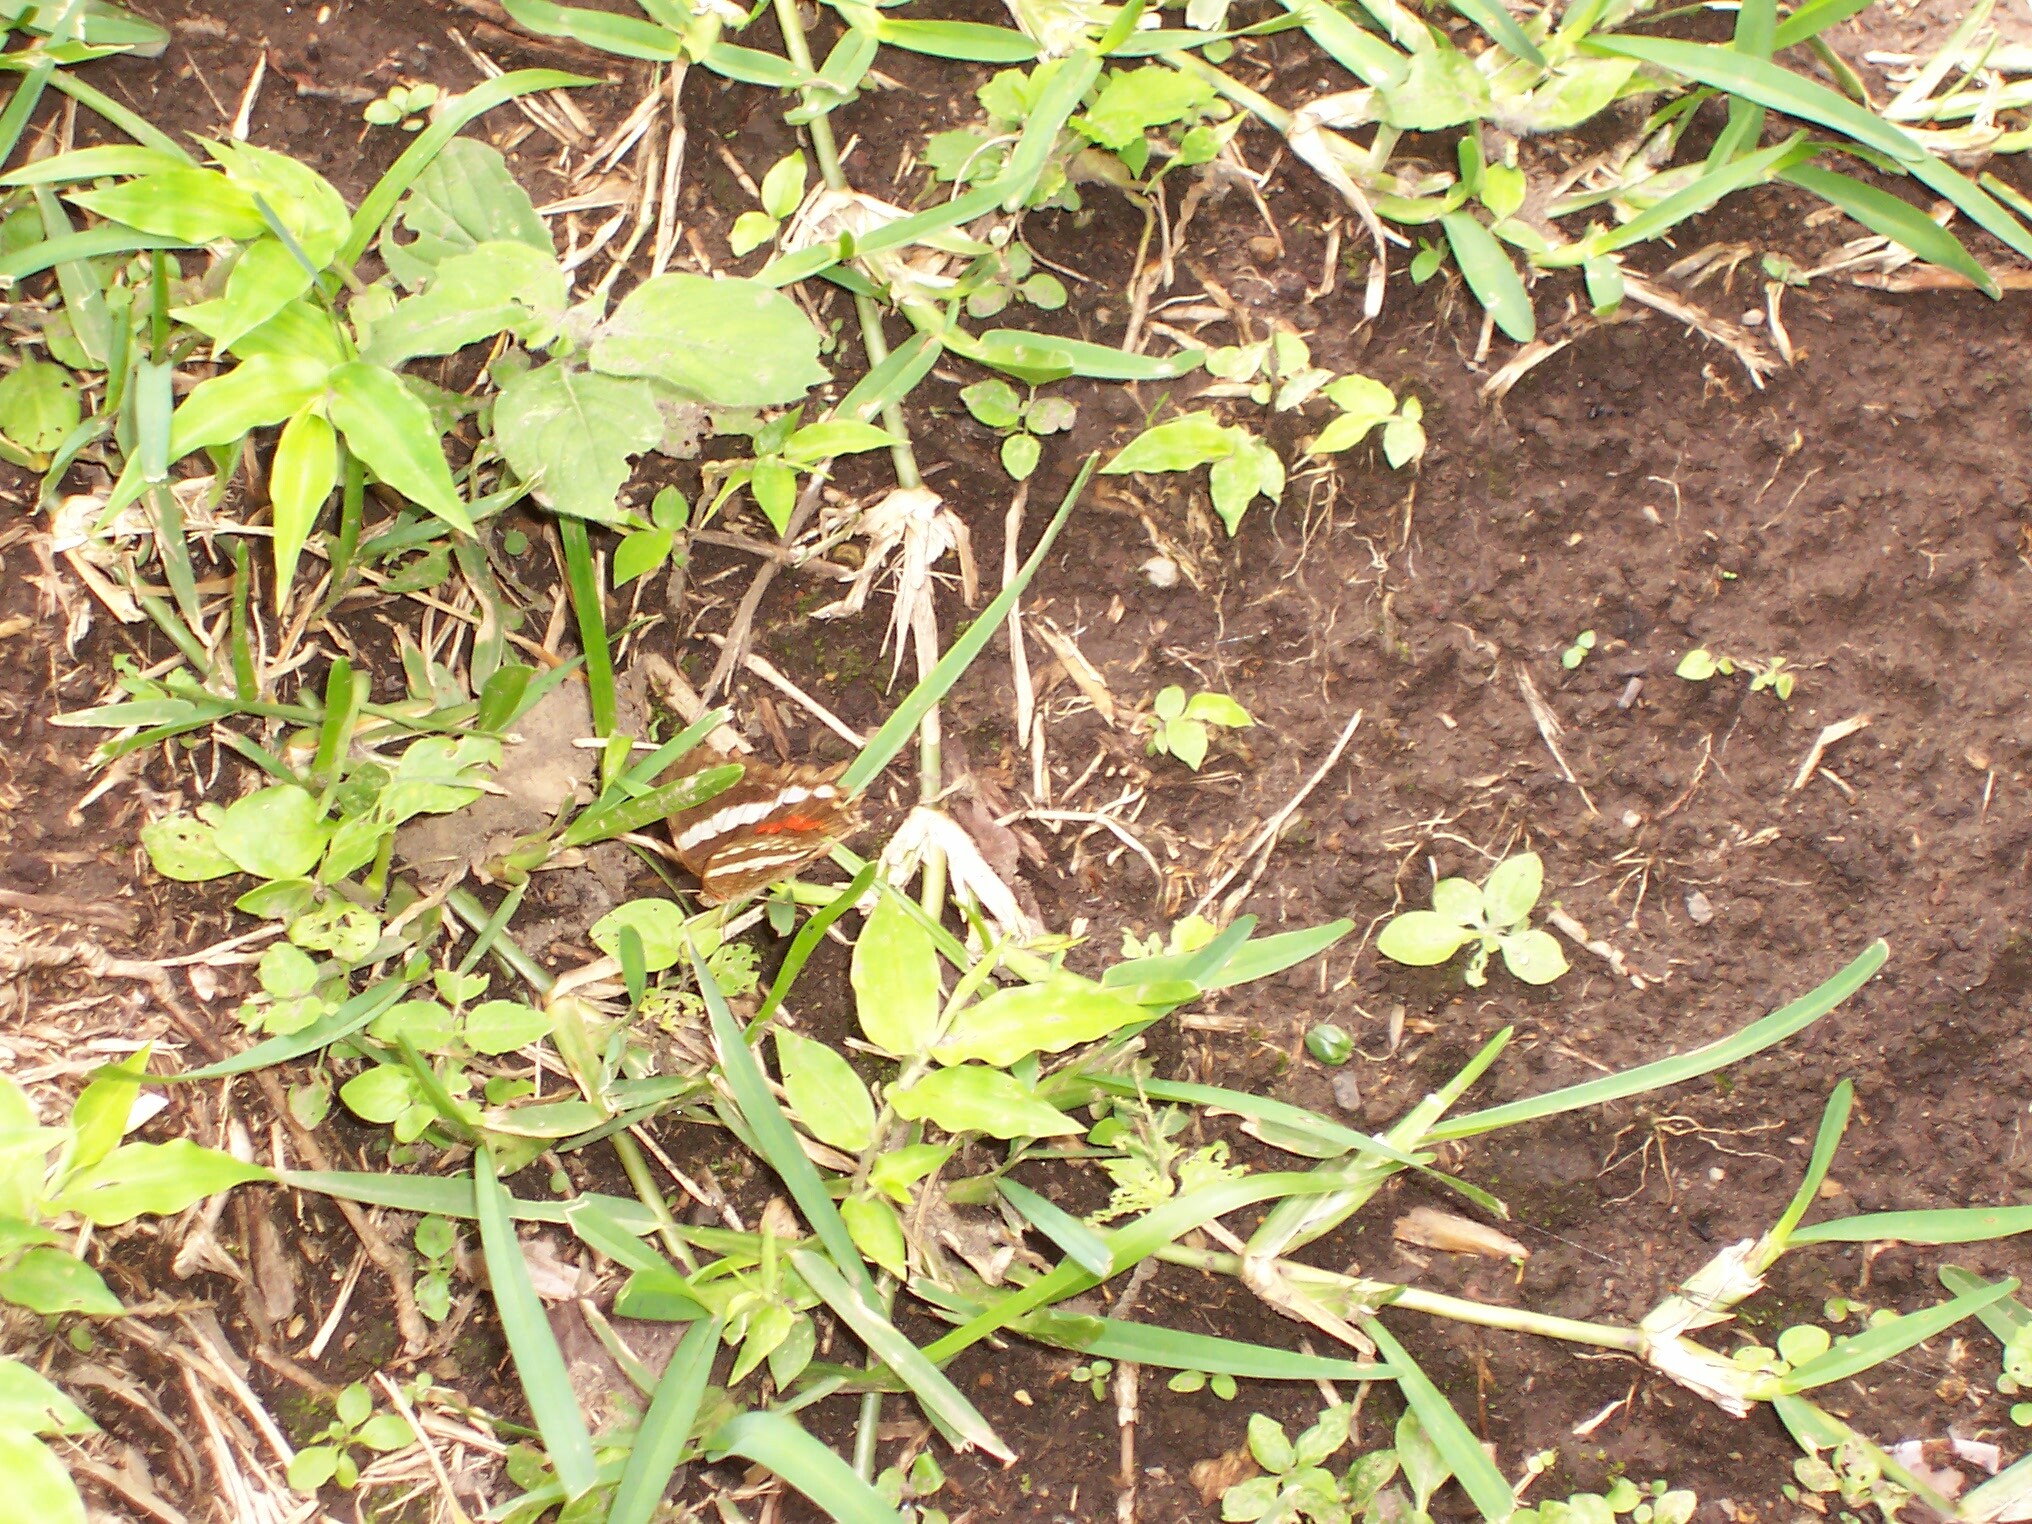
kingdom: Animalia
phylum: Arthropoda
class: Insecta
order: Lepidoptera
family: Nymphalidae
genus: Anartia
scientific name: Anartia fatima
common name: Banded peacock
